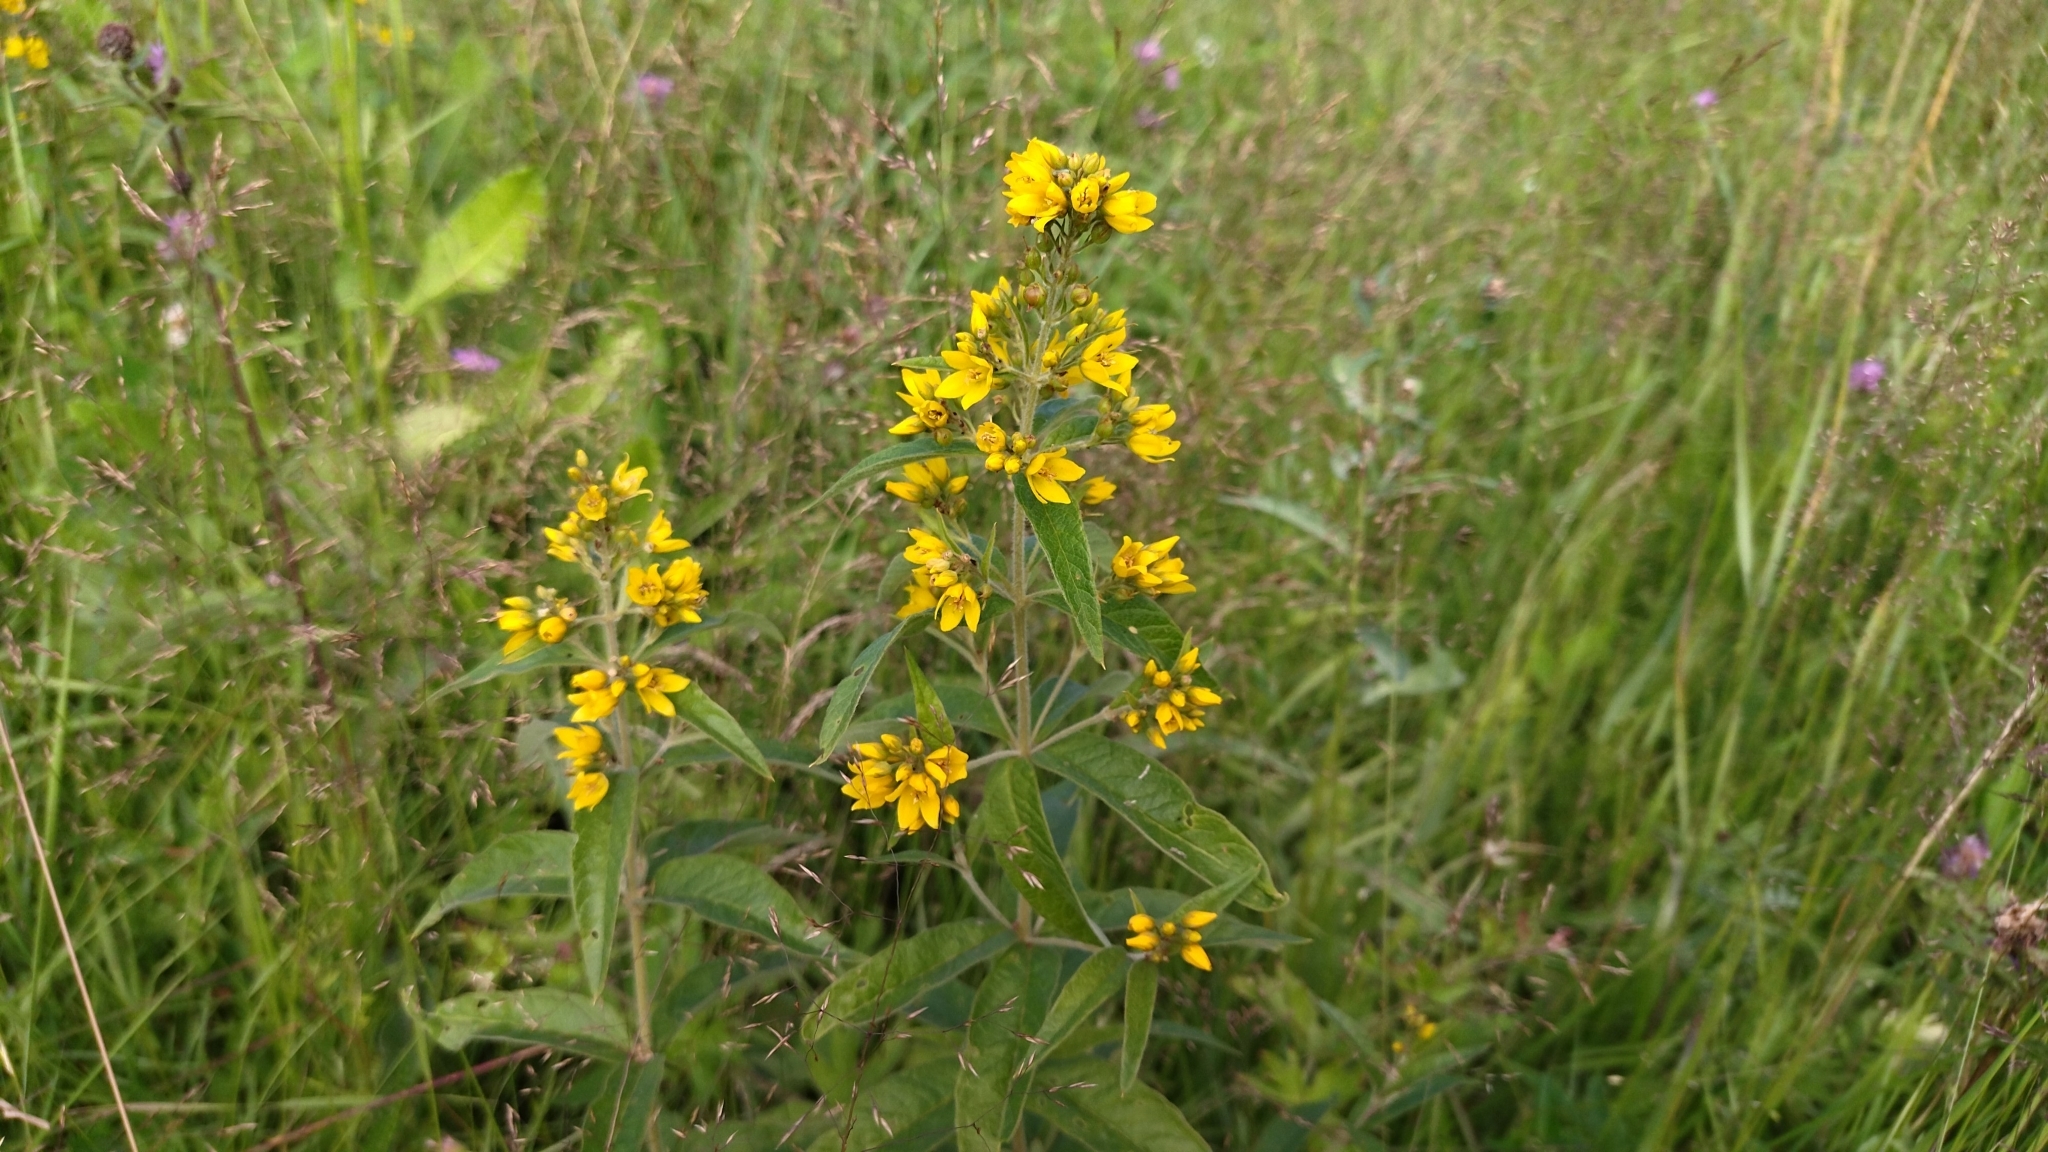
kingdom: Plantae
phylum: Tracheophyta
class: Magnoliopsida
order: Ericales
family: Primulaceae
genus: Lysimachia
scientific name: Lysimachia vulgaris
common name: Yellow loosestrife
